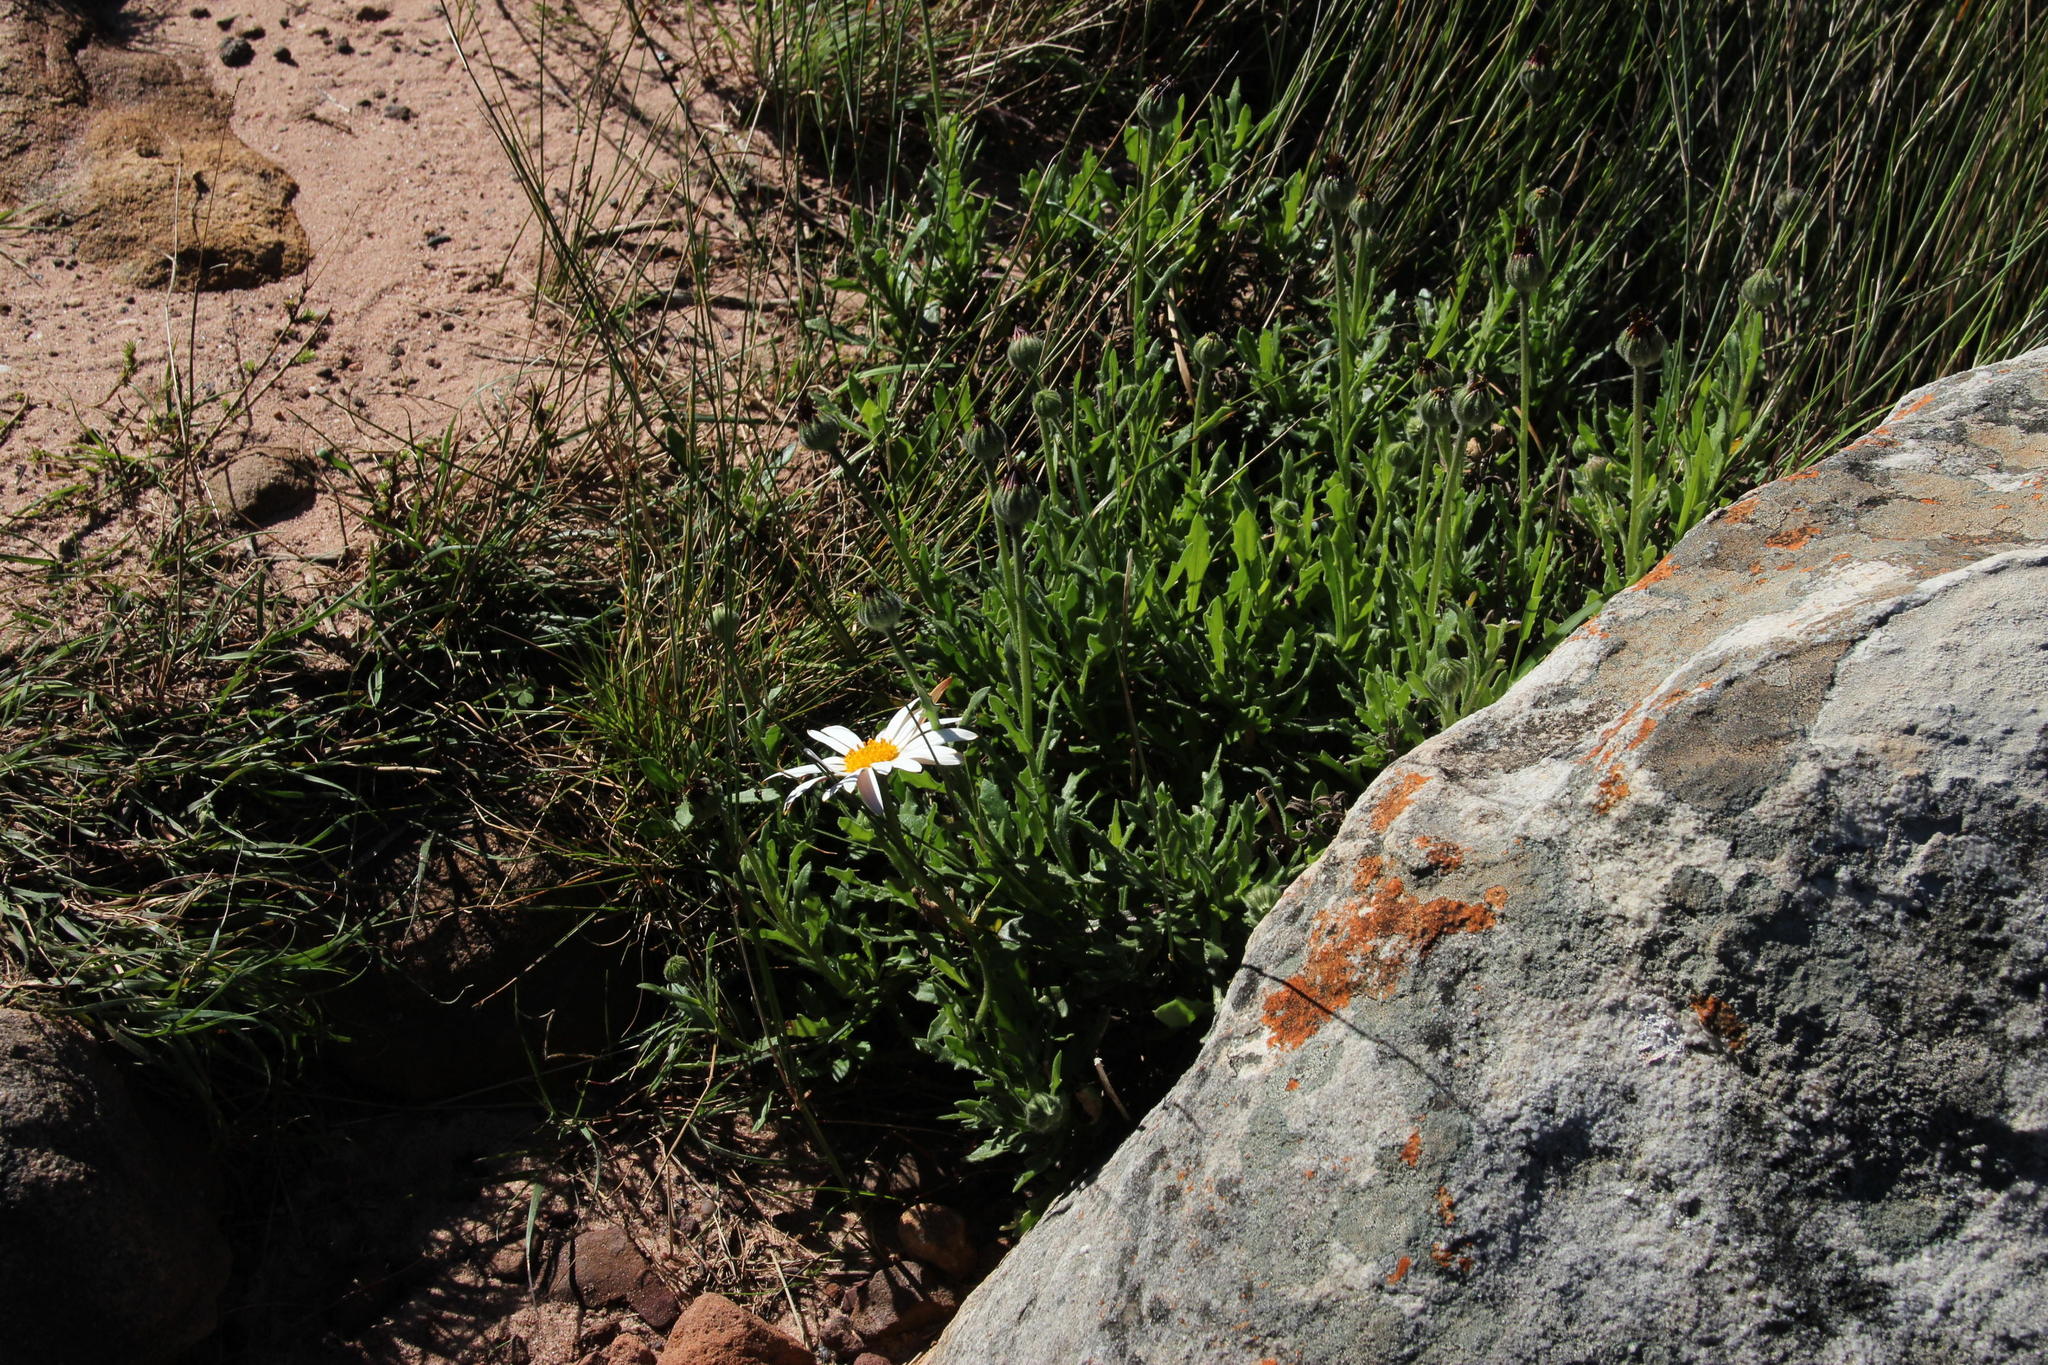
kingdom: Plantae
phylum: Tracheophyta
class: Magnoliopsida
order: Asterales
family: Asteraceae
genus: Dimorphotheca
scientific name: Dimorphotheca pluvialis
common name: Weather prophet
